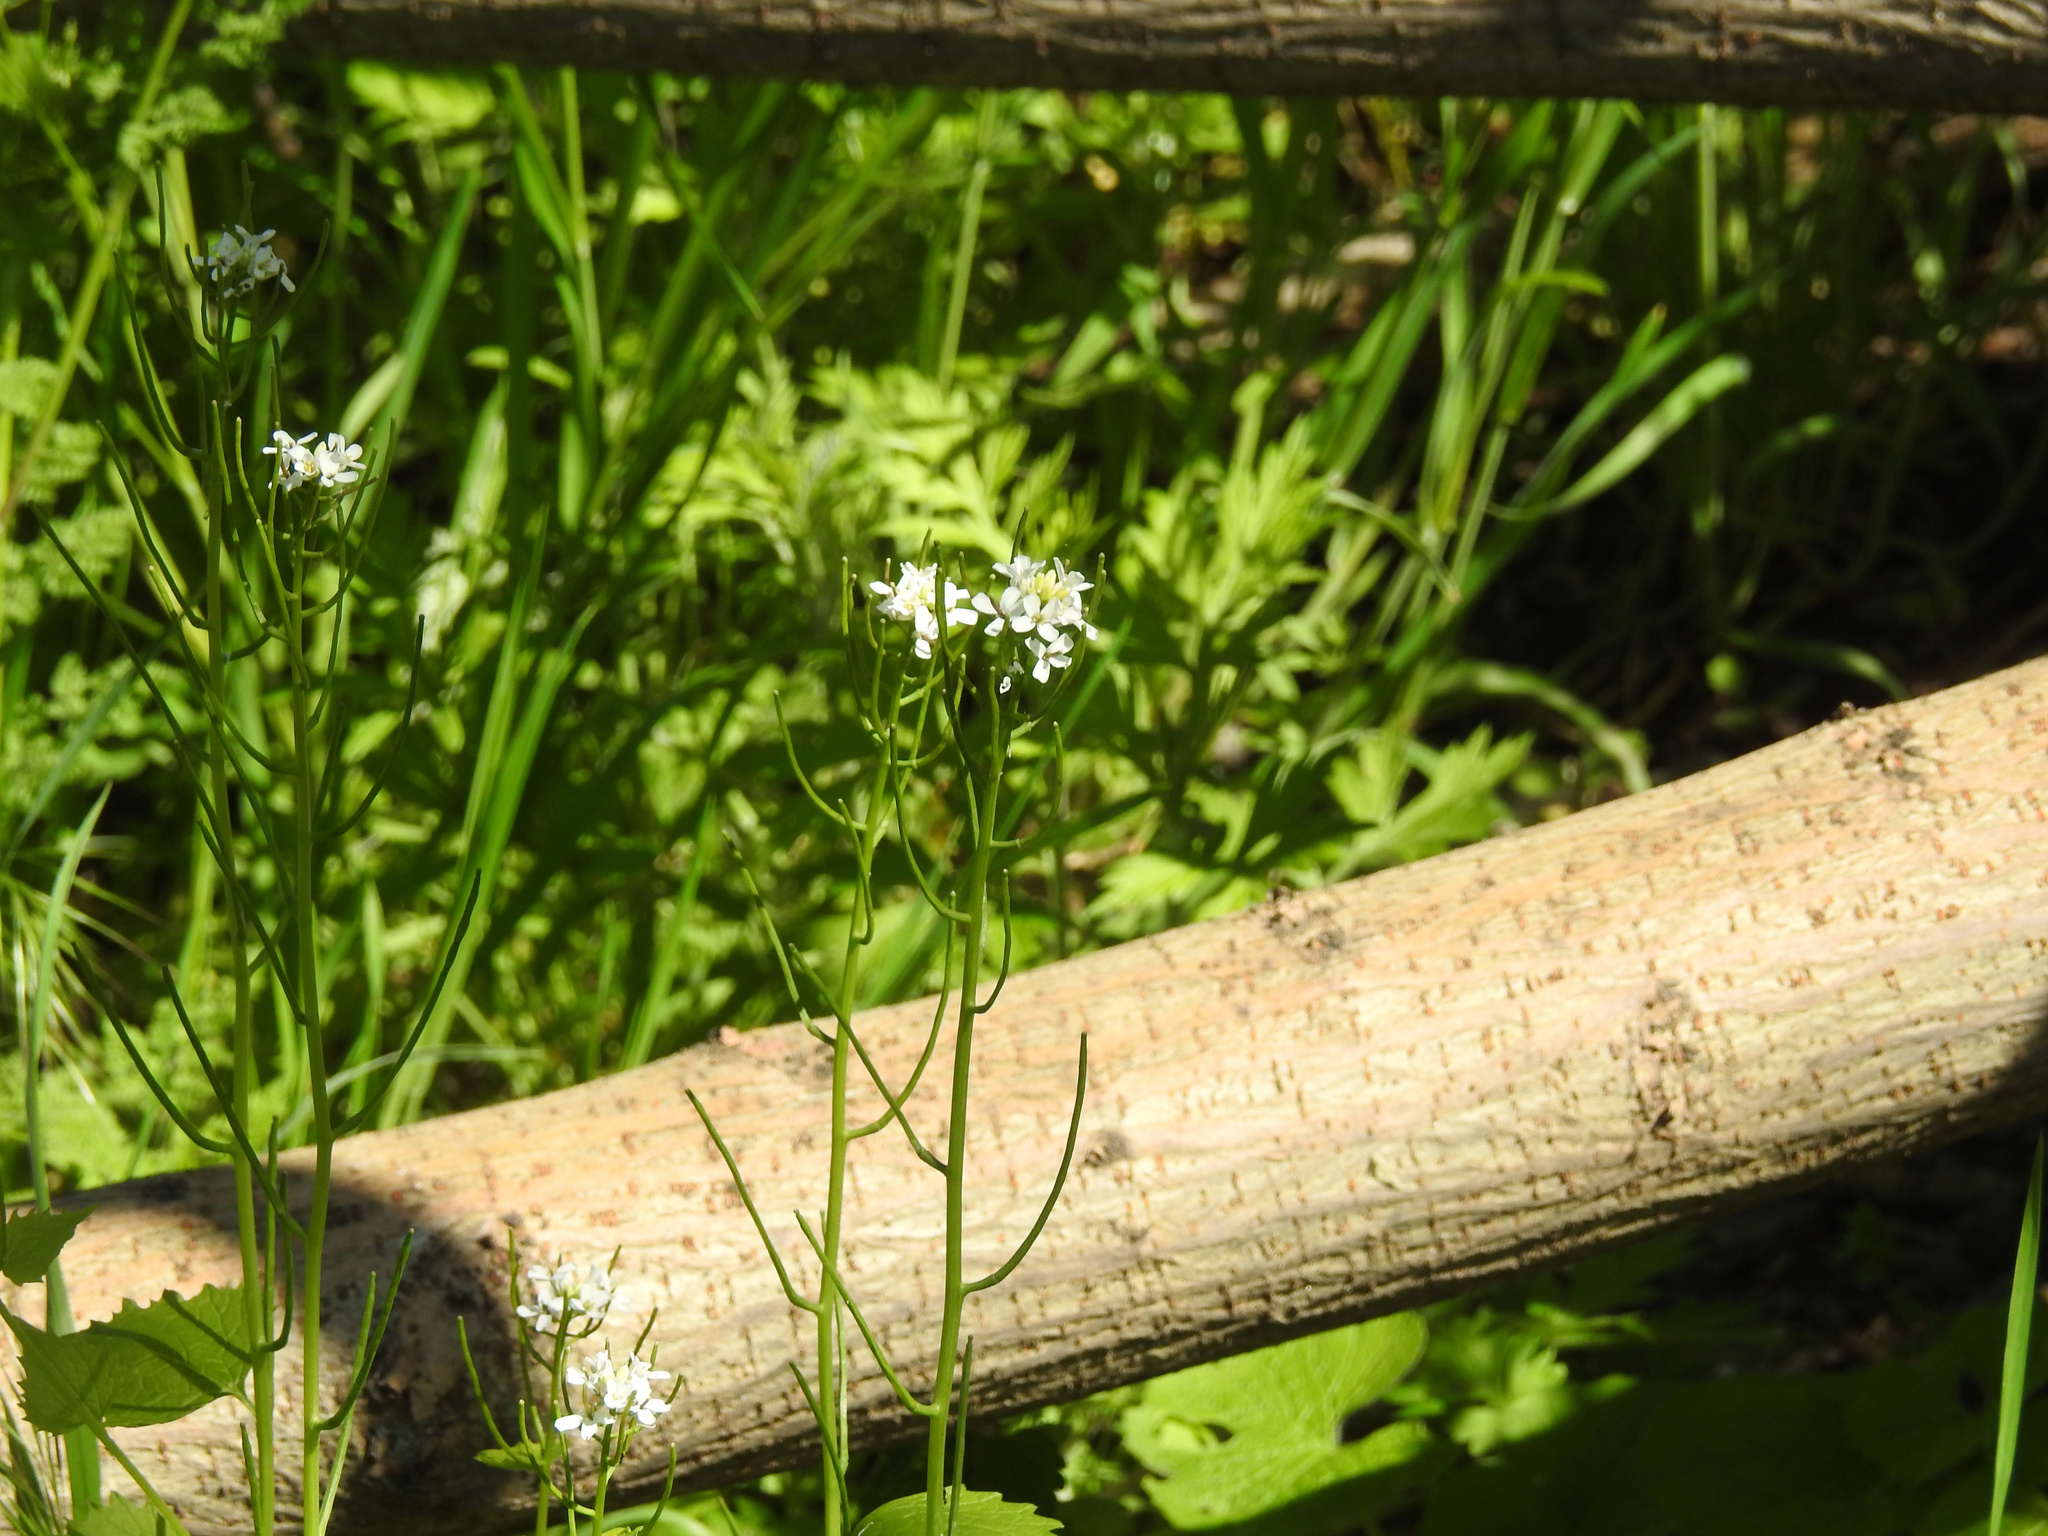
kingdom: Plantae
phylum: Tracheophyta
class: Magnoliopsida
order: Brassicales
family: Brassicaceae
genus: Alliaria
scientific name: Alliaria petiolata
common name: Garlic mustard
